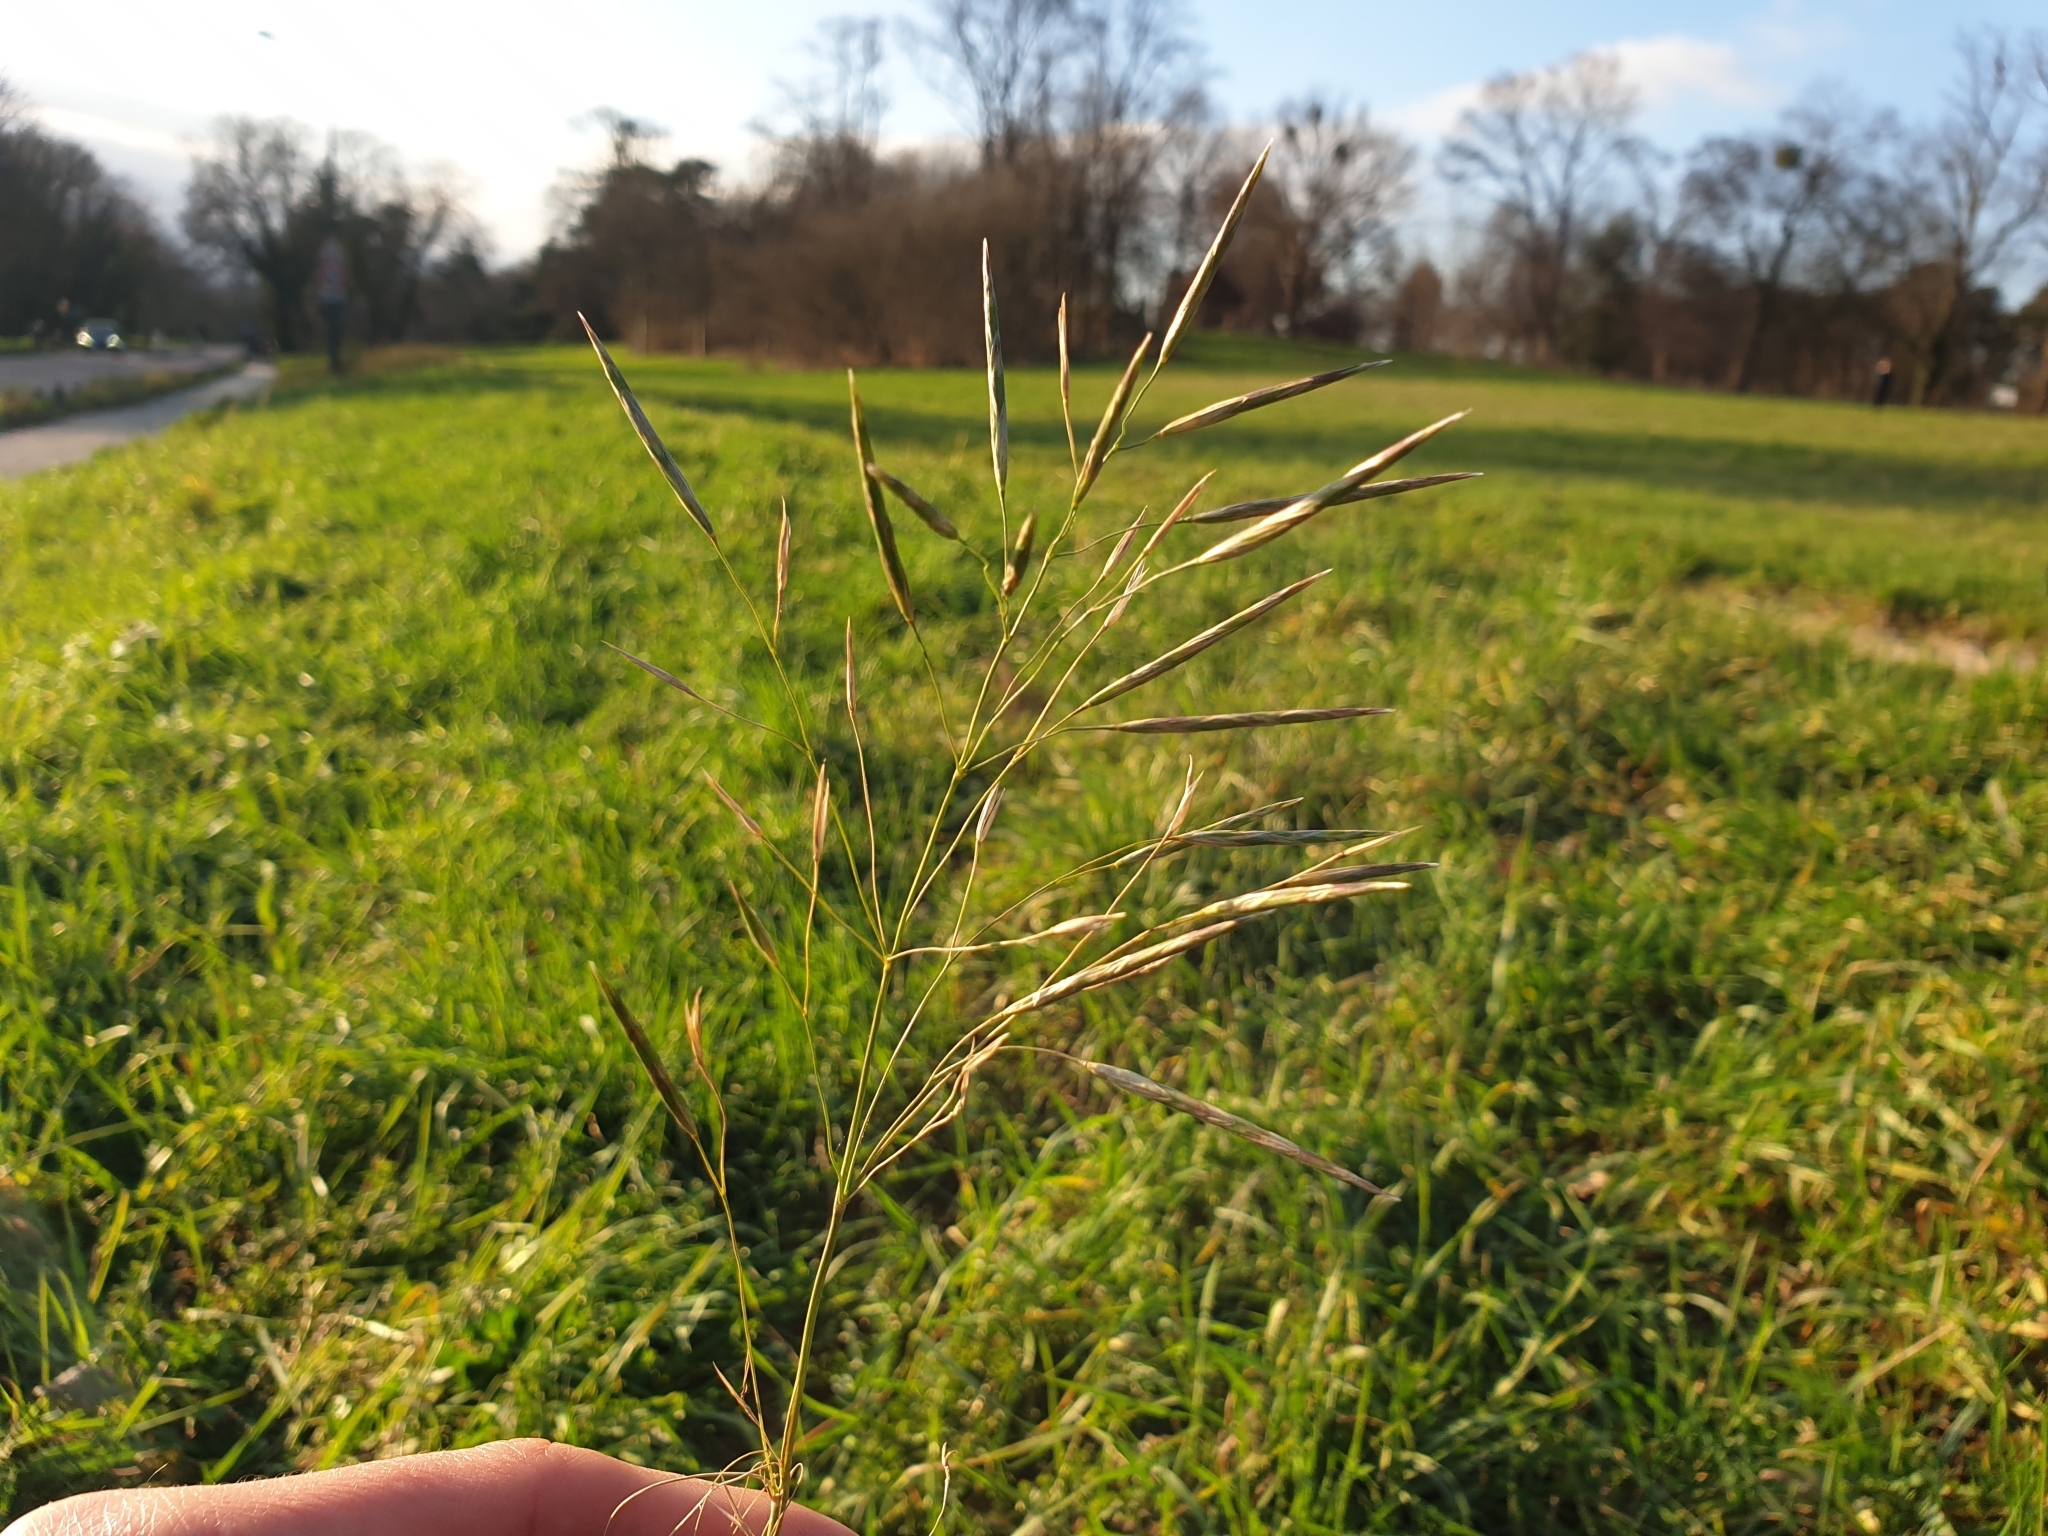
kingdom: Plantae
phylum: Tracheophyta
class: Liliopsida
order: Poales
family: Poaceae
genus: Bromus
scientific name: Bromus inermis
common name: Smooth brome
